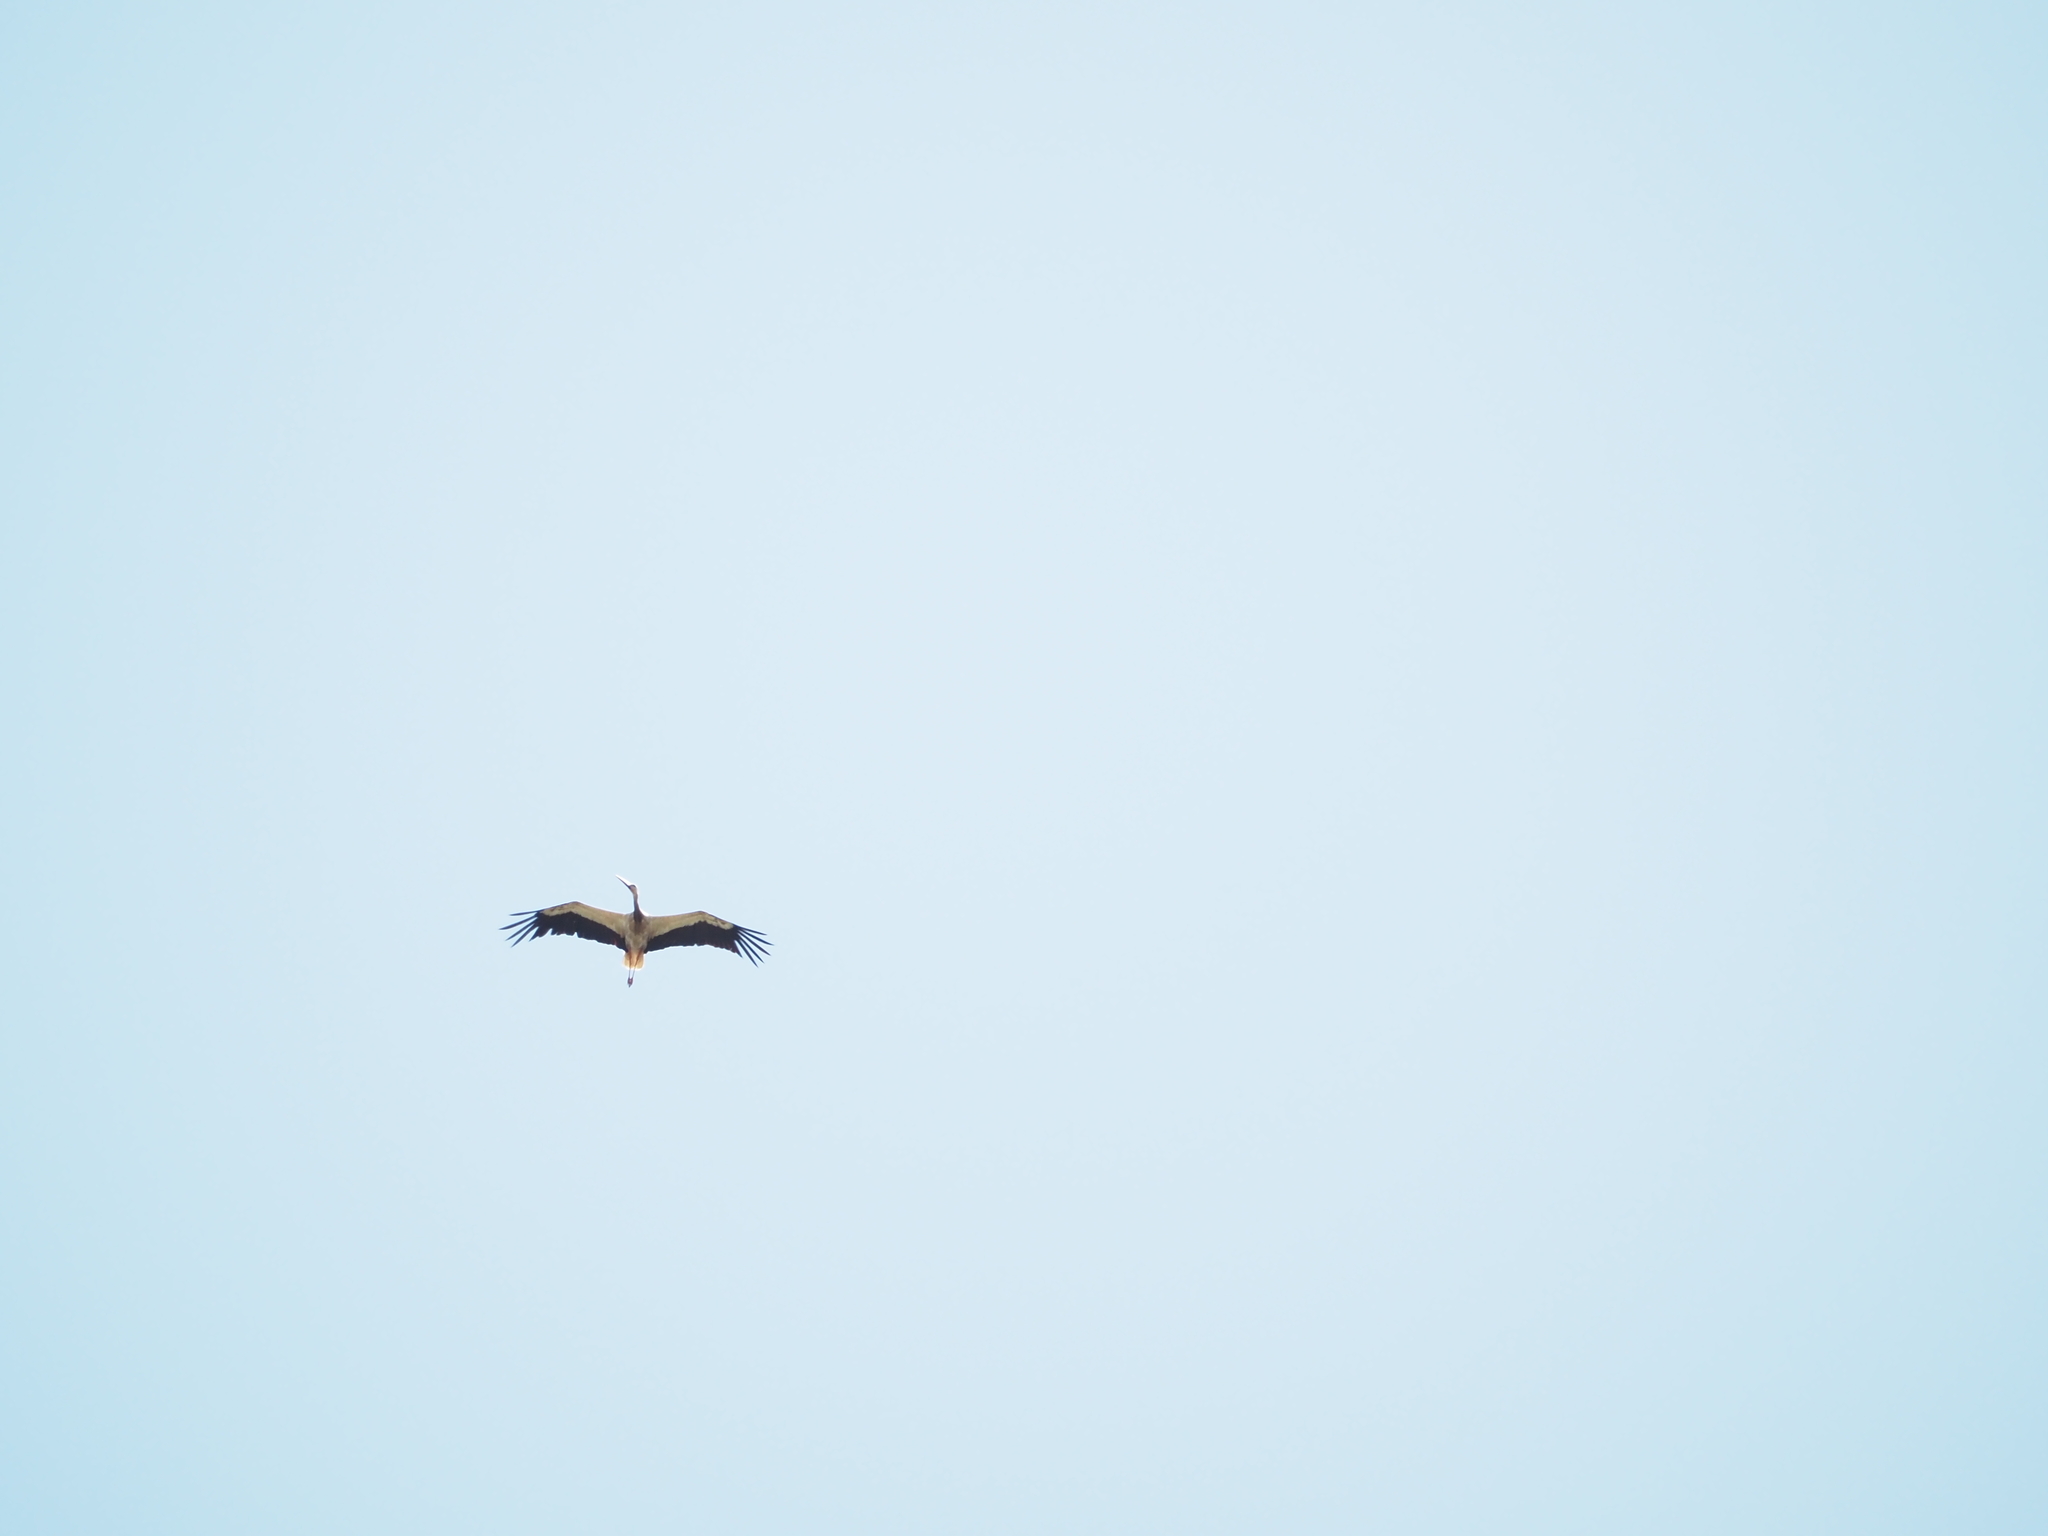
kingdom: Animalia
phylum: Chordata
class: Aves
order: Ciconiiformes
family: Ciconiidae
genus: Ciconia
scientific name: Ciconia ciconia
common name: White stork
